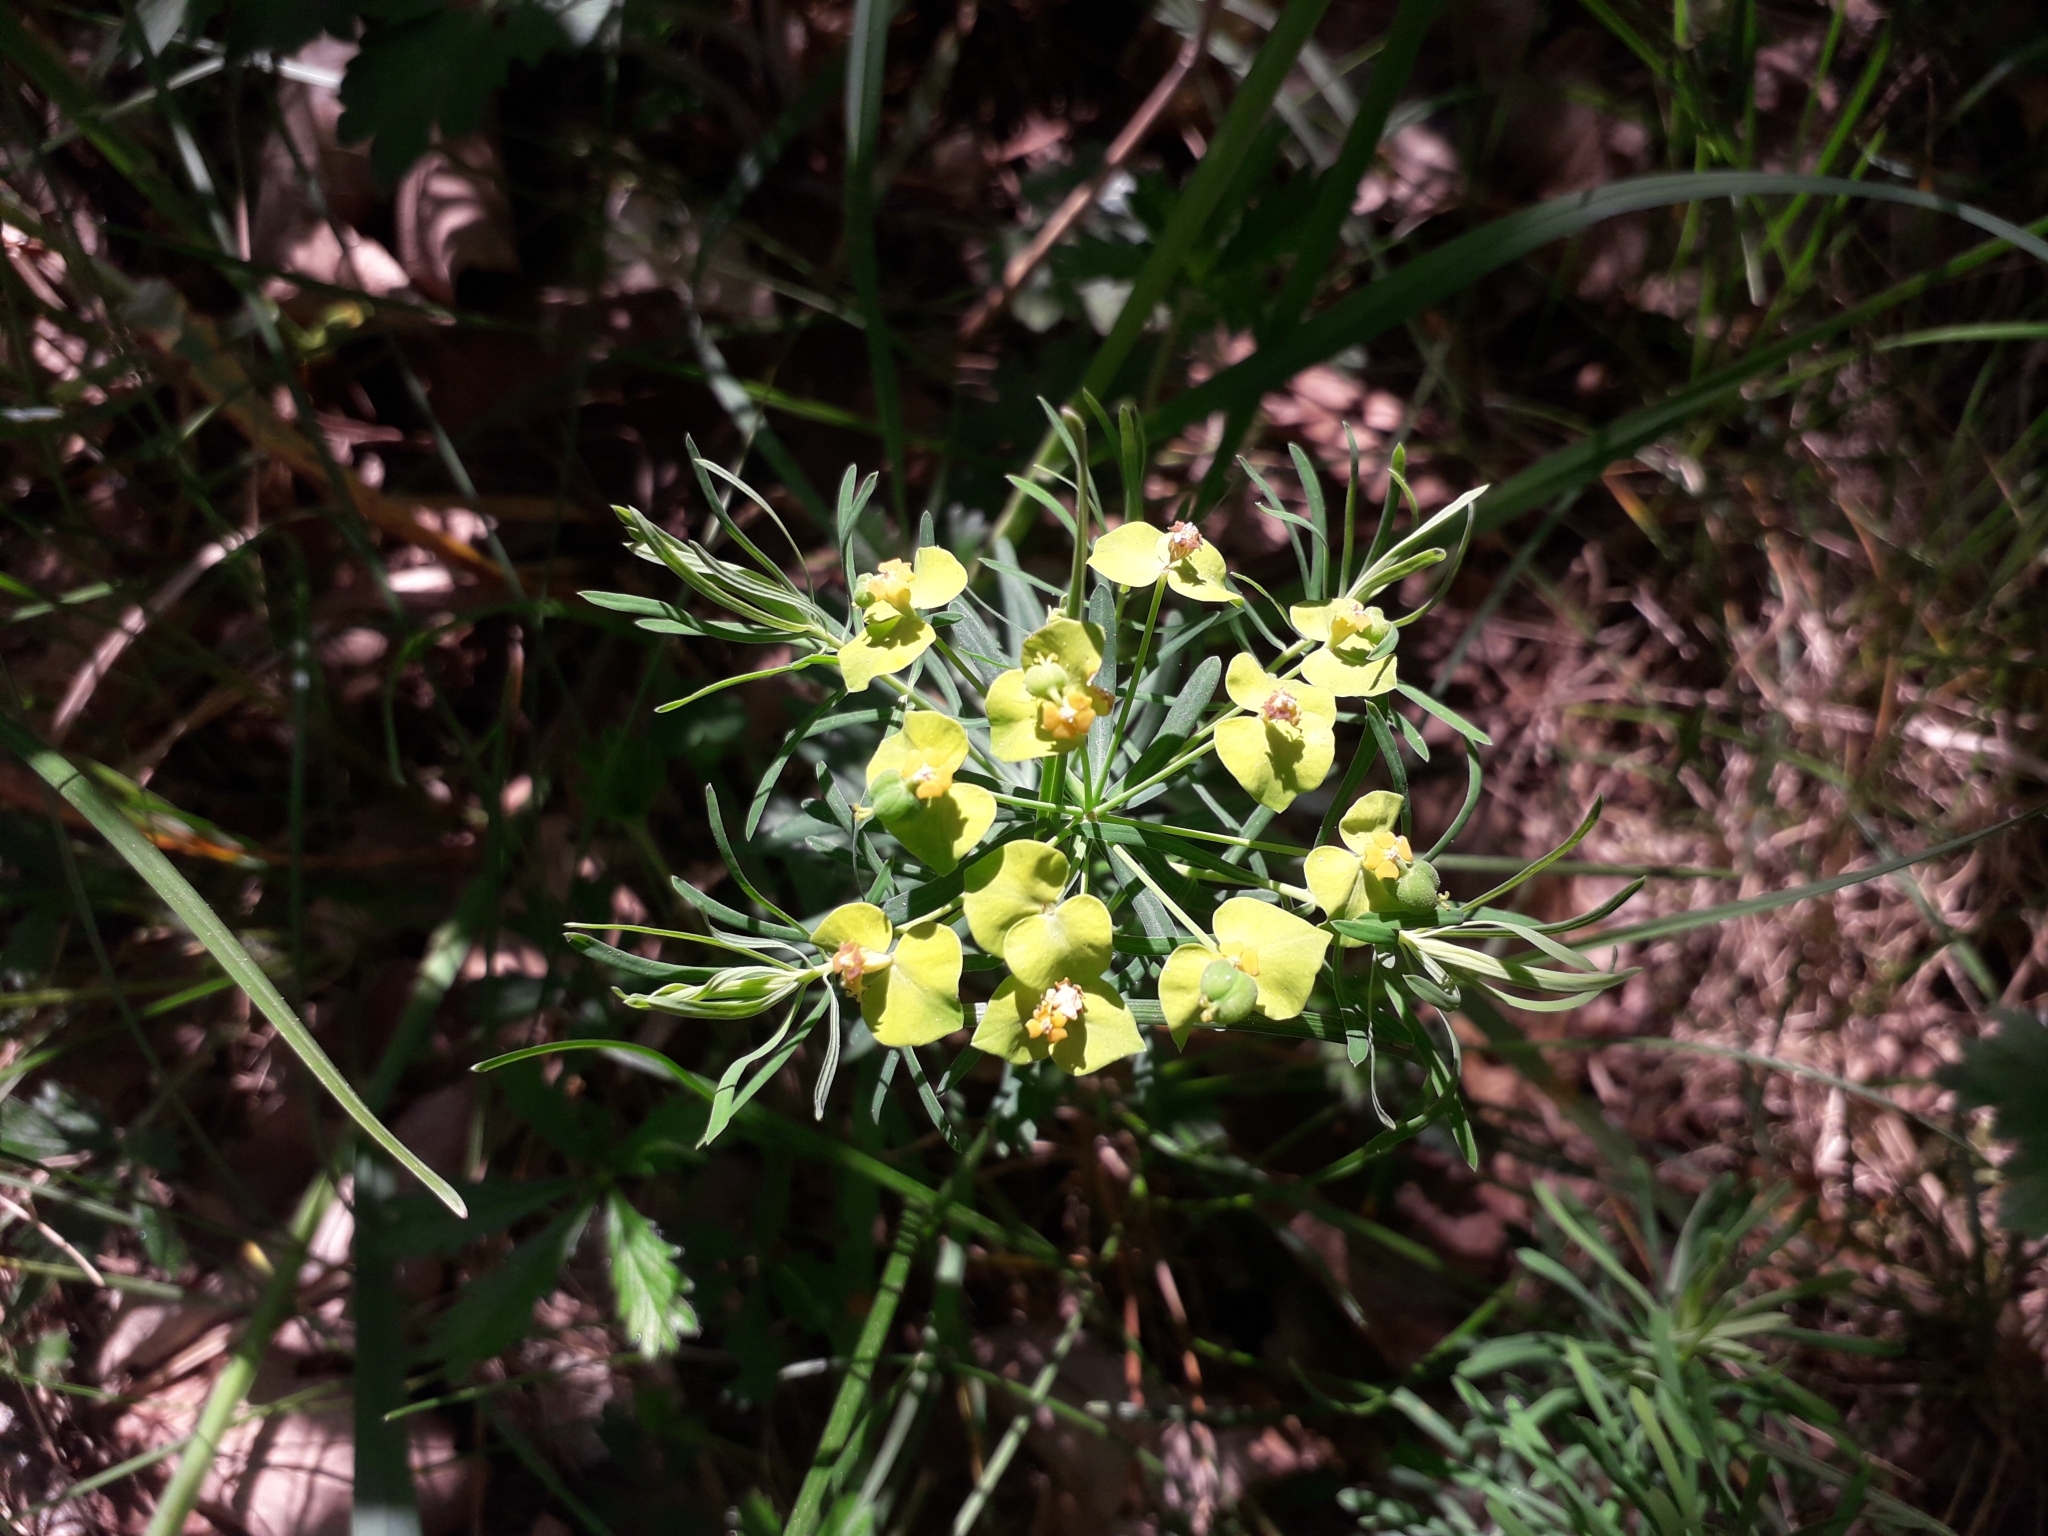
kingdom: Plantae
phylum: Tracheophyta
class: Magnoliopsida
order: Malpighiales
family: Euphorbiaceae
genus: Euphorbia
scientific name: Euphorbia cyparissias
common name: Cypress spurge
